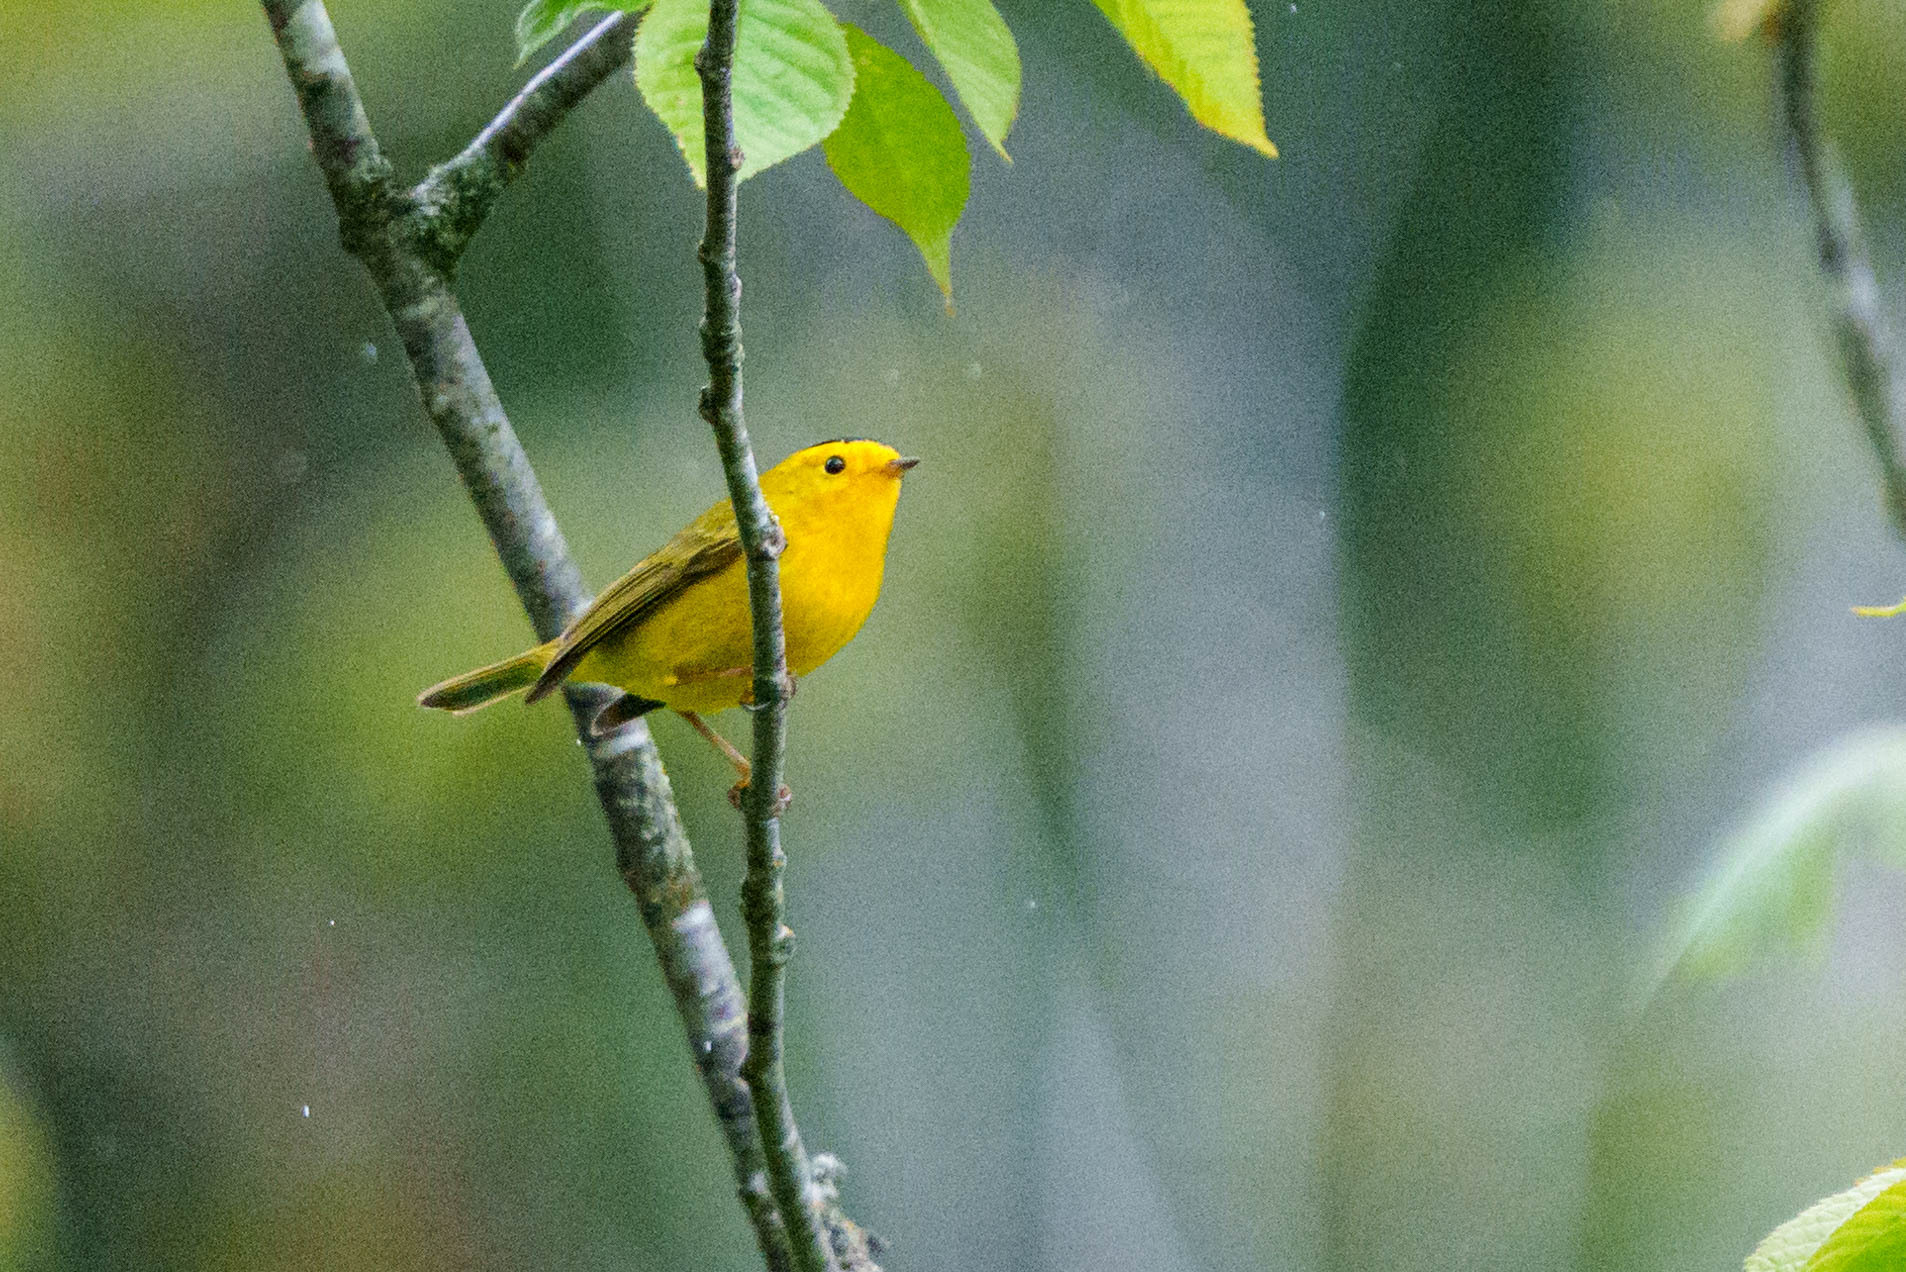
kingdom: Animalia
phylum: Chordata
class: Aves
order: Passeriformes
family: Parulidae
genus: Cardellina
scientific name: Cardellina pusilla
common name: Wilson's warbler
